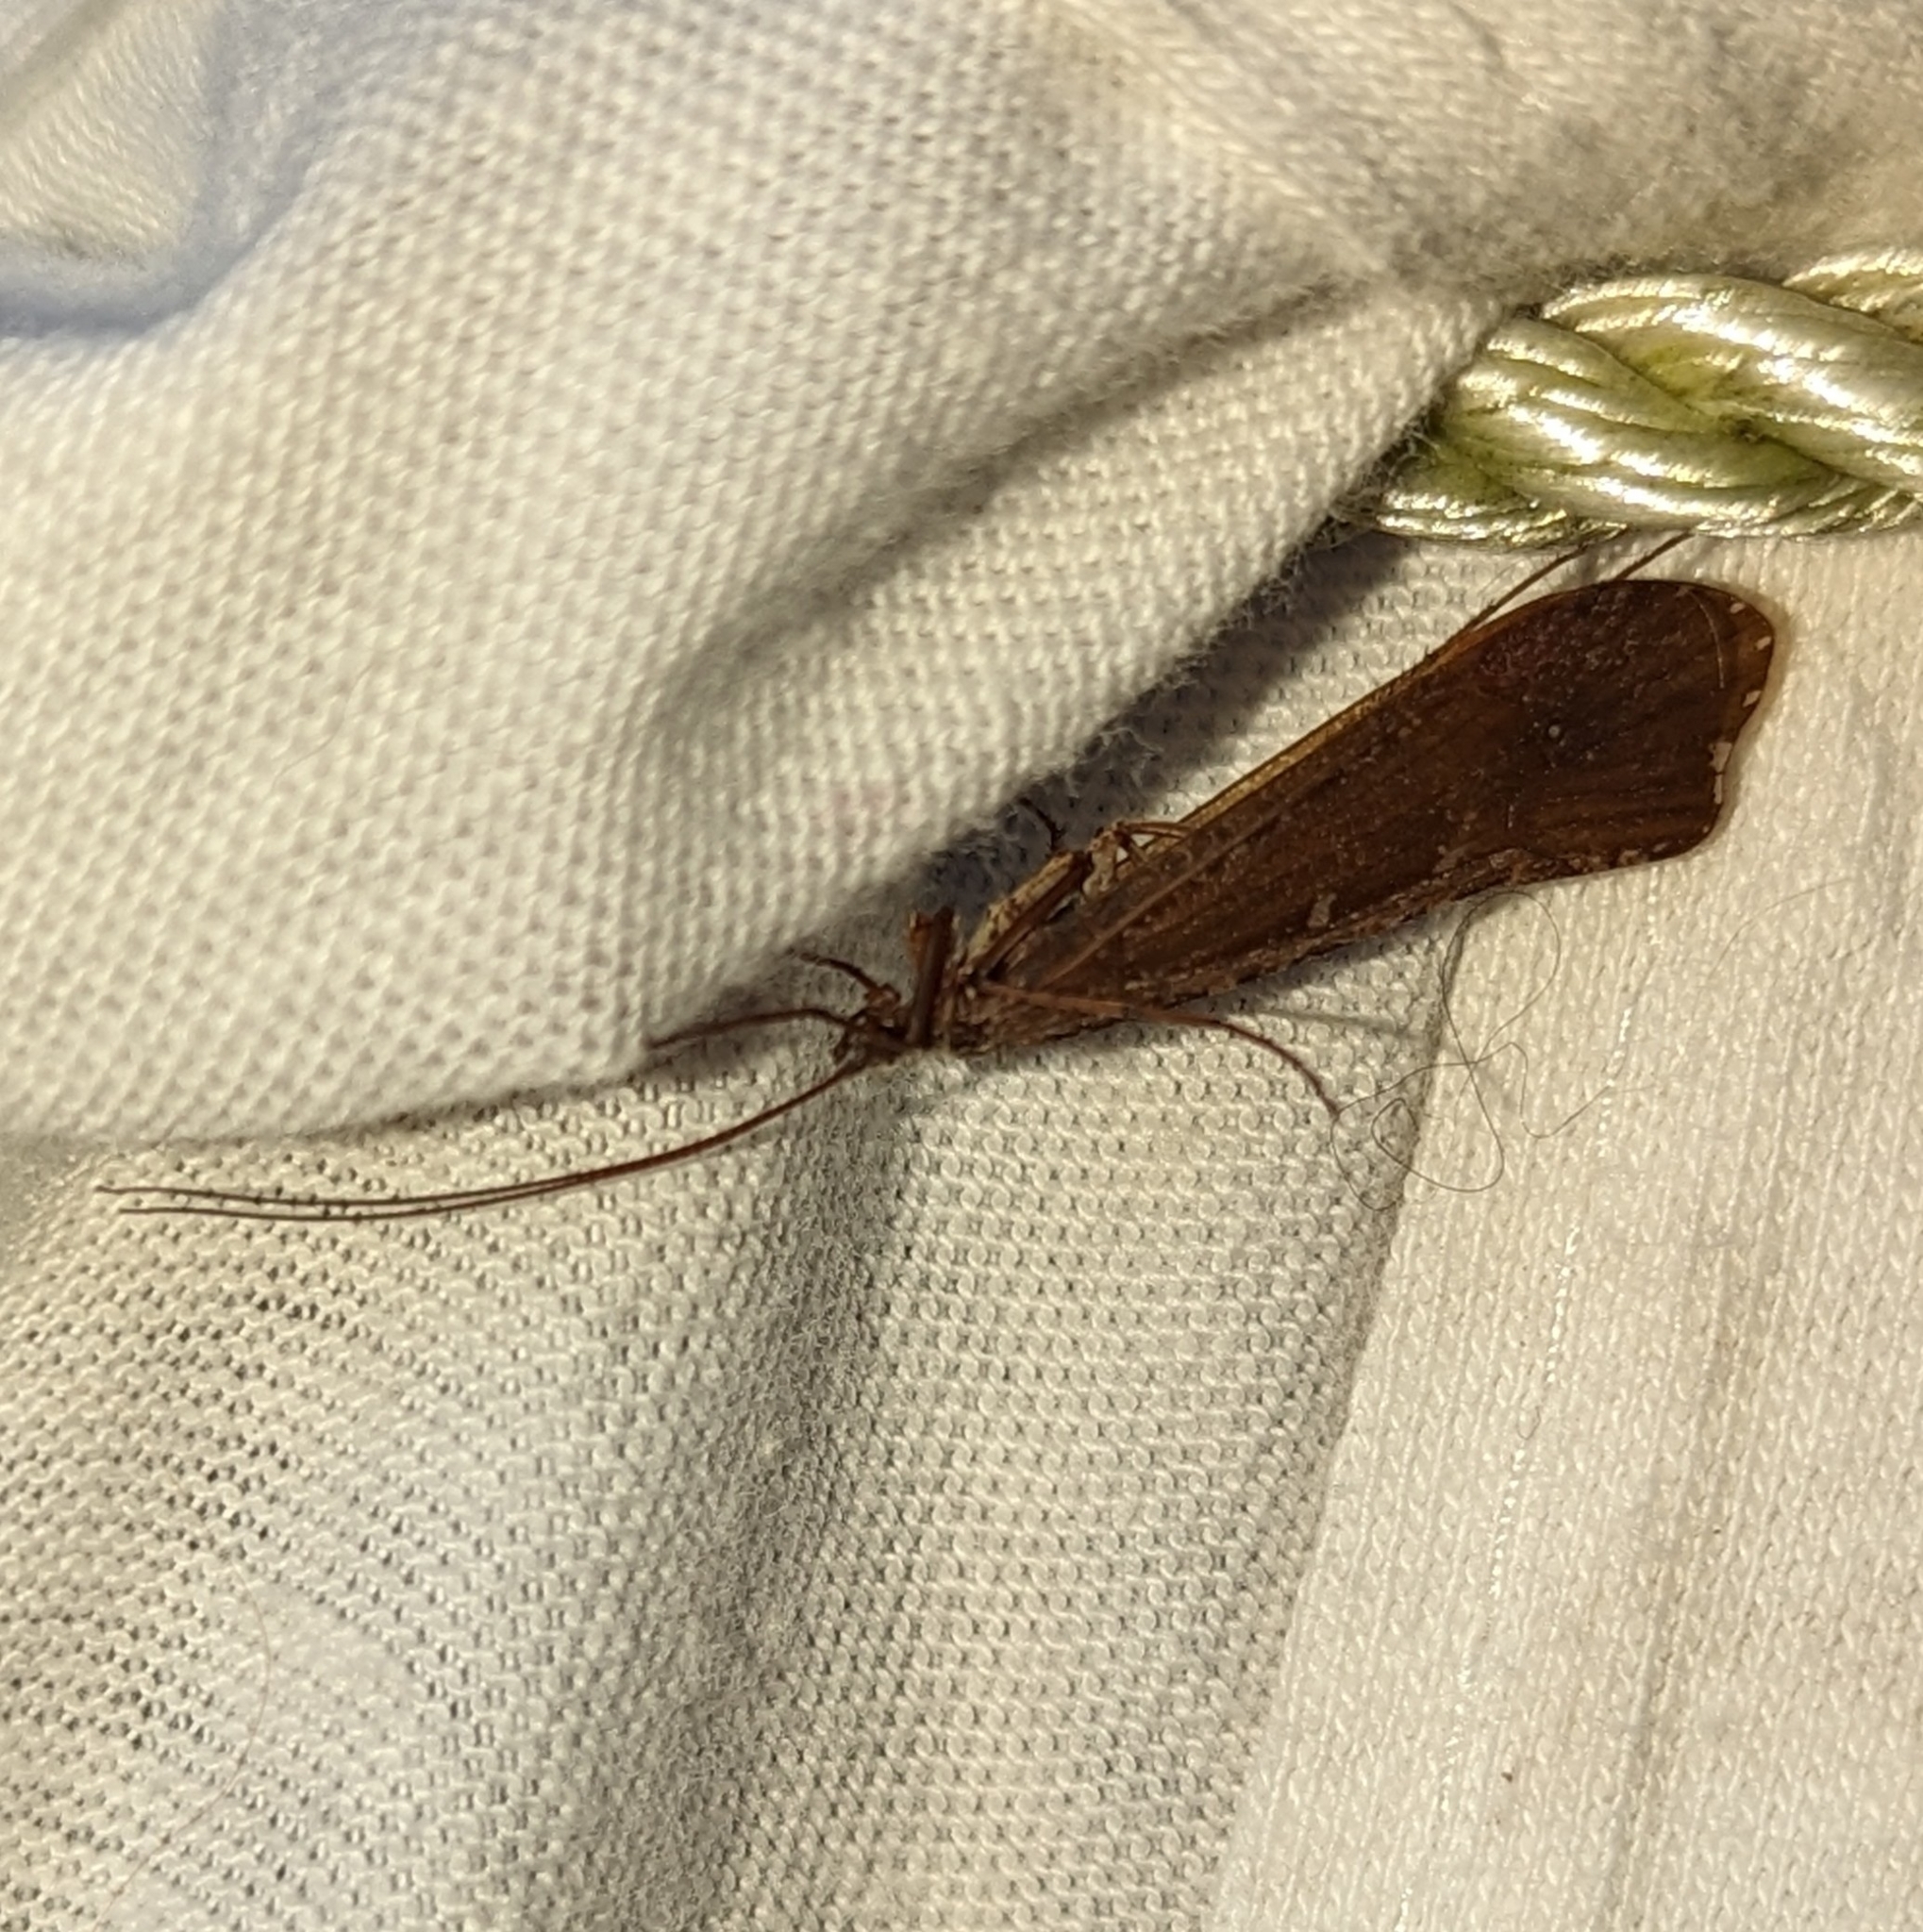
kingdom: Animalia
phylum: Arthropoda
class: Insecta
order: Trichoptera
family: Limnephilidae
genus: Glyphopsyche
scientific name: Glyphopsyche irrorata
